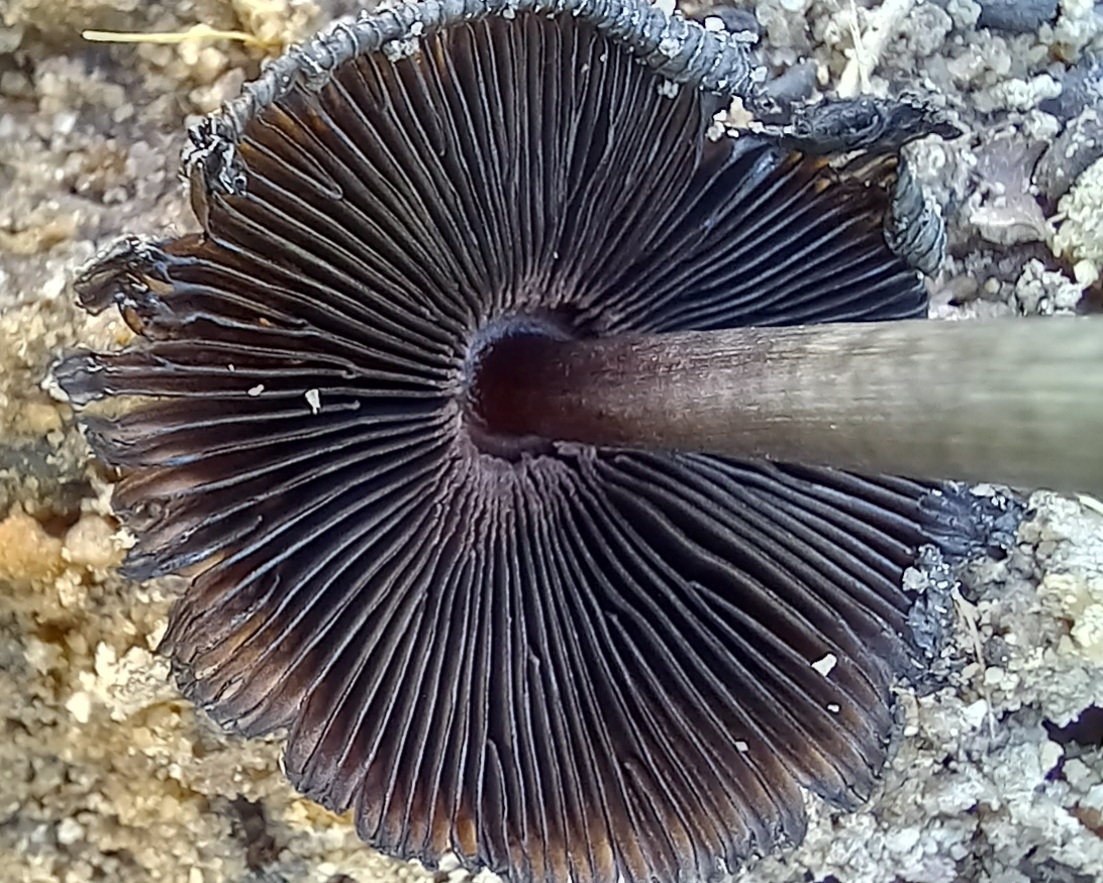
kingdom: Fungi
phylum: Basidiomycota
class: Agaricomycetes
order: Agaricales
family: Agaricaceae
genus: Coprinus
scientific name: Coprinus xerophilus
